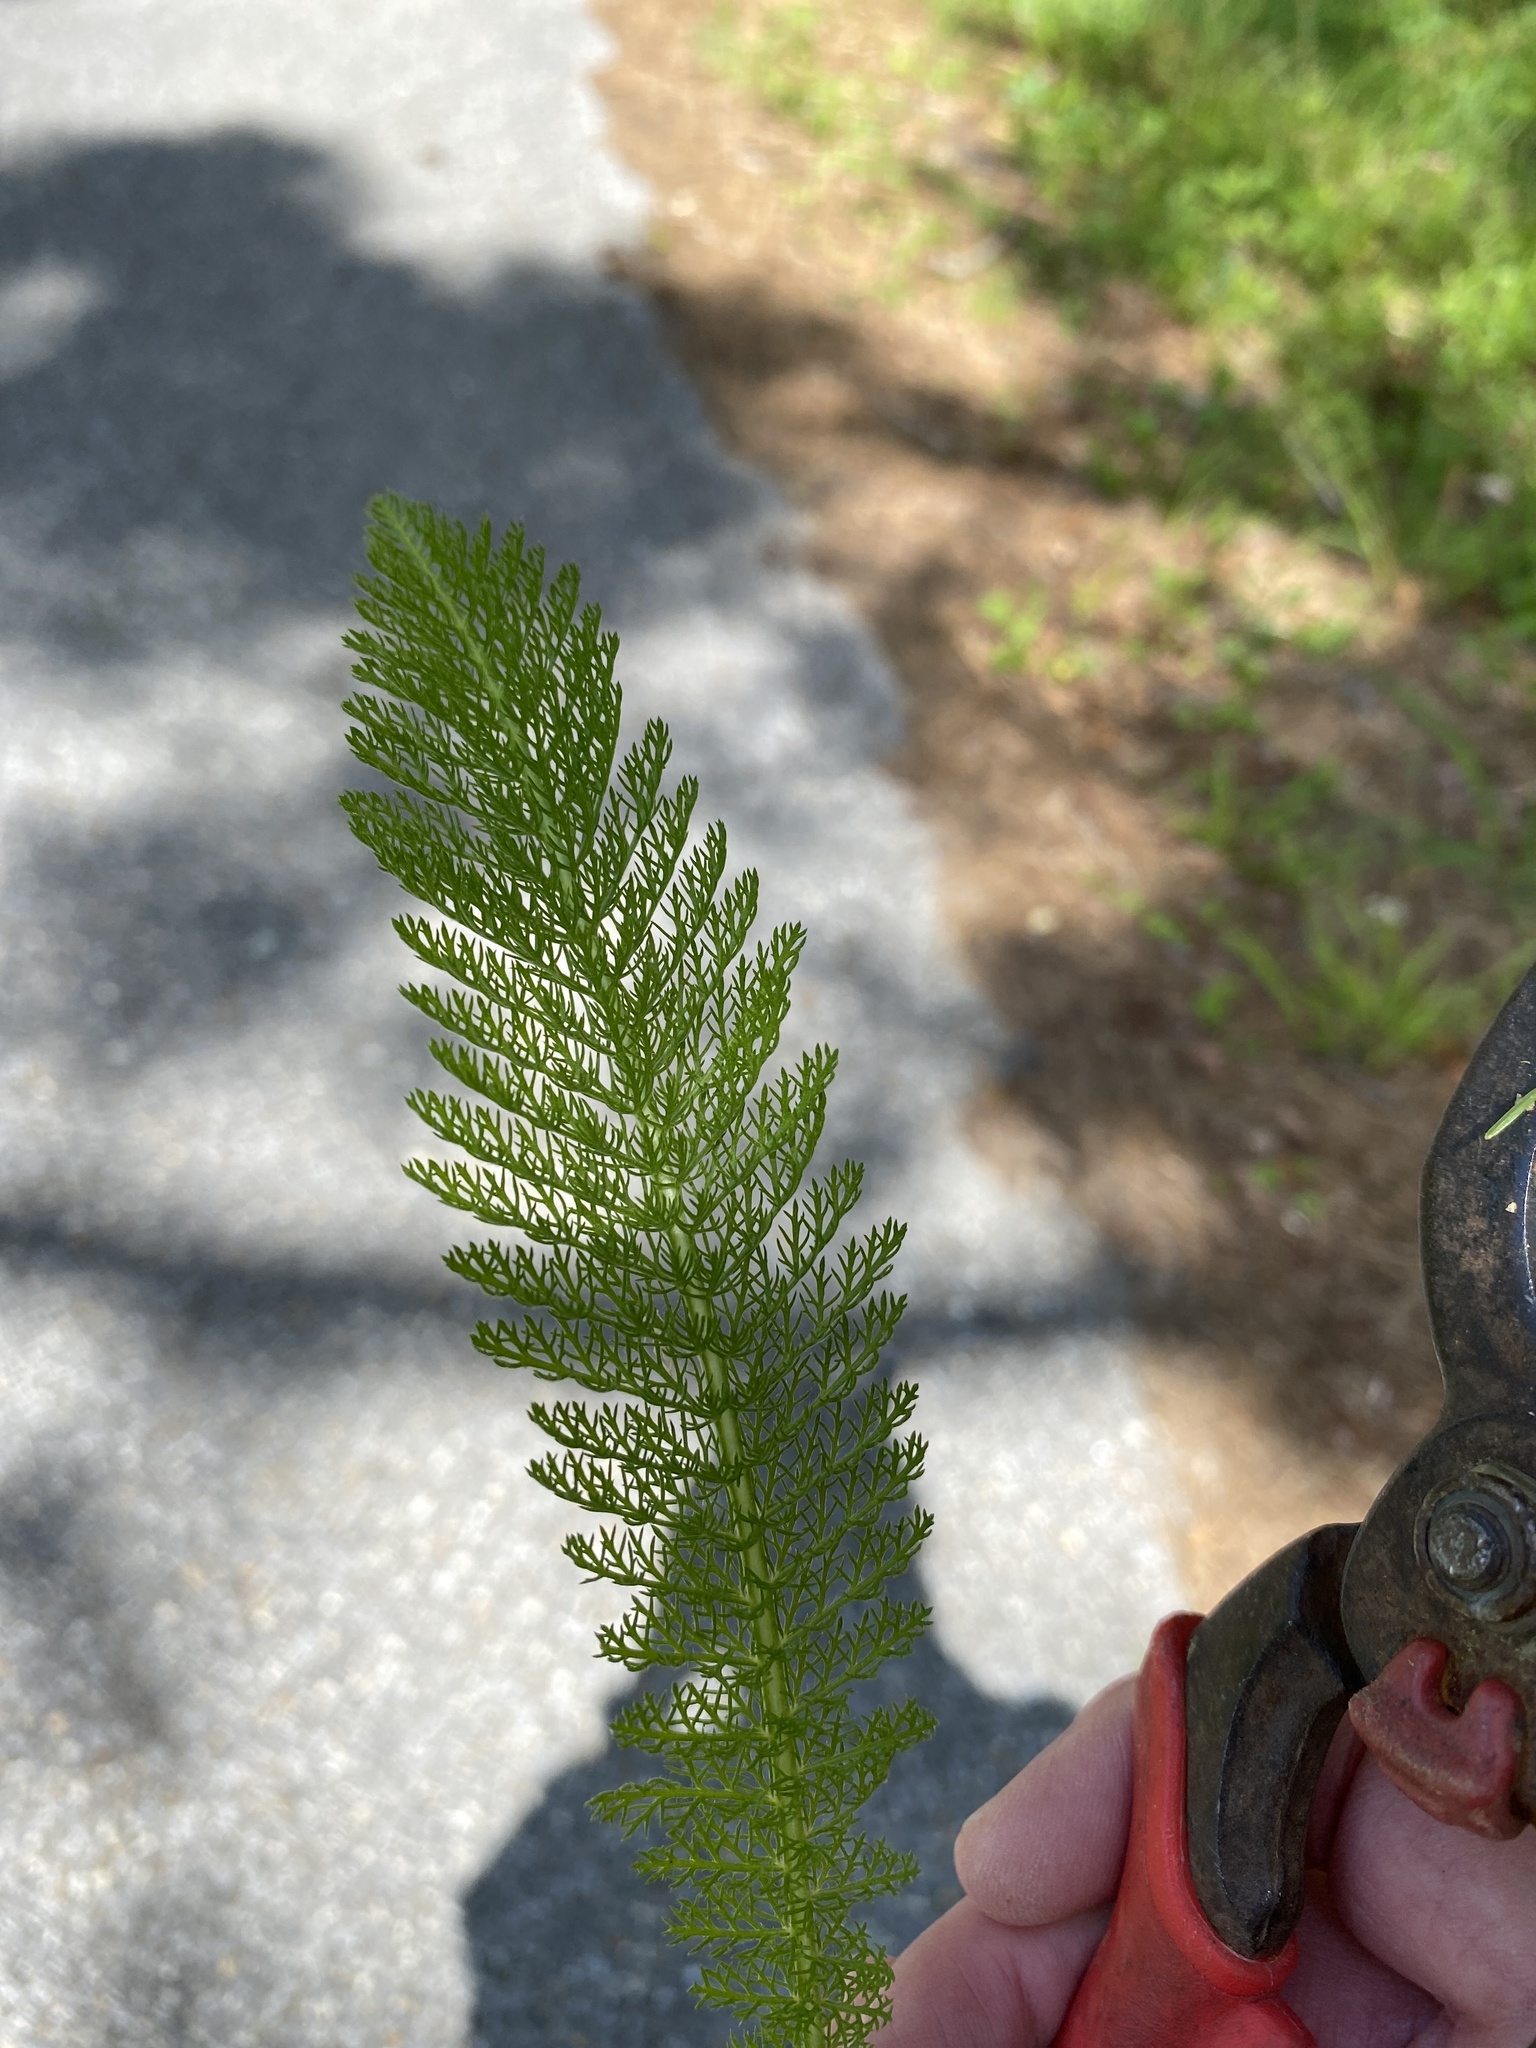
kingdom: Plantae
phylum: Tracheophyta
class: Magnoliopsida
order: Asterales
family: Asteraceae
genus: Achillea
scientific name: Achillea millefolium
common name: Yarrow
